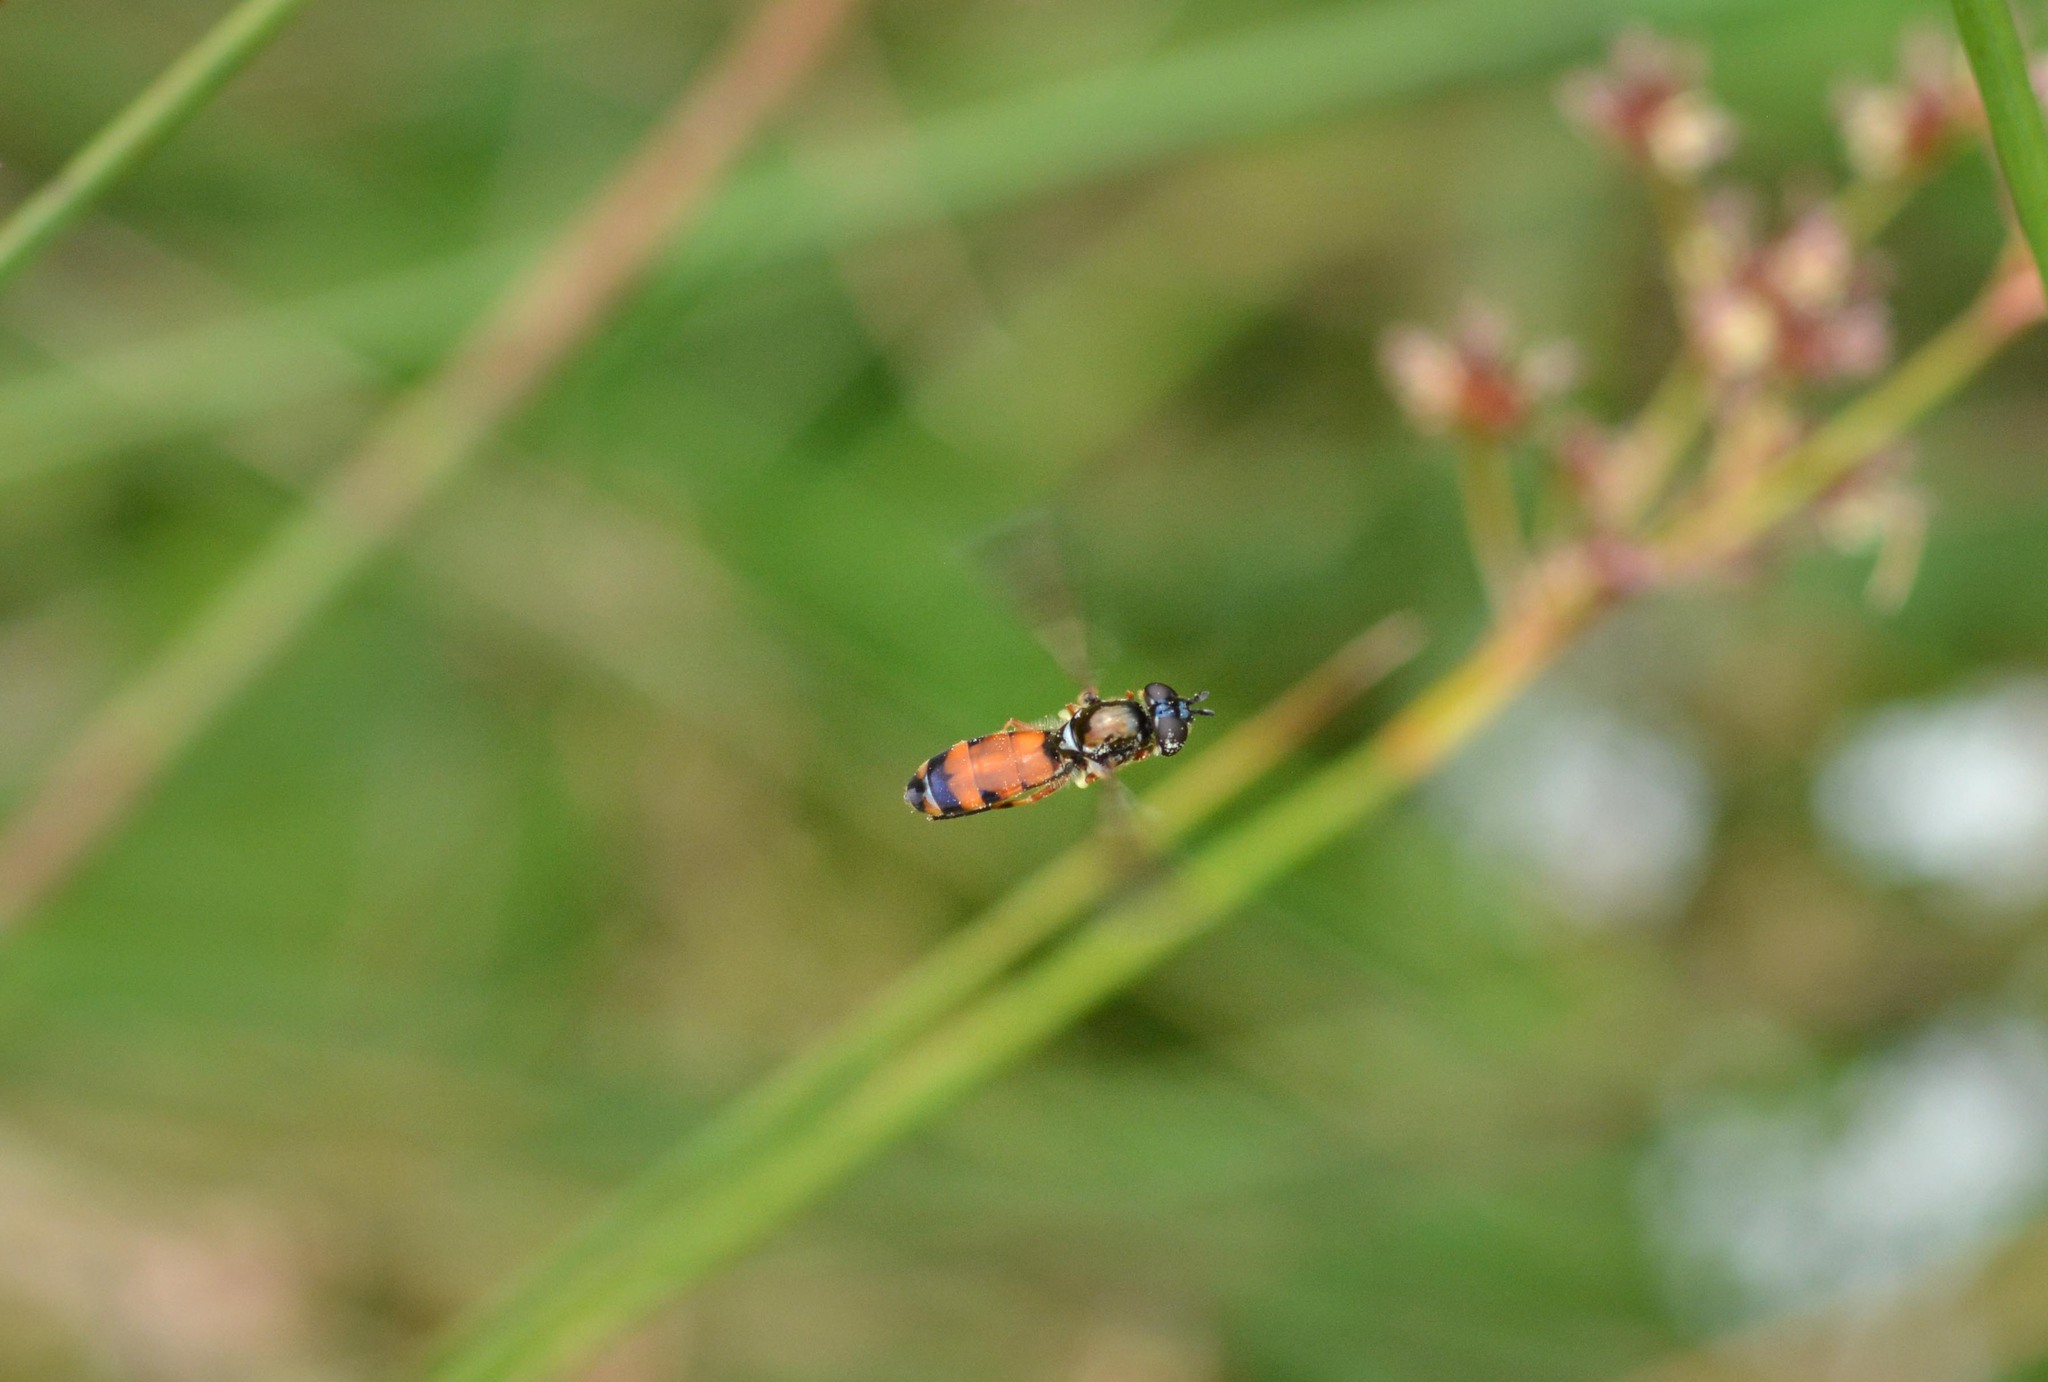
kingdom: Animalia
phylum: Arthropoda
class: Insecta
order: Diptera
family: Syrphidae
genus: Pyrophaena
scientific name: Pyrophaena granditarsa
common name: Hornhand sedgesitter
